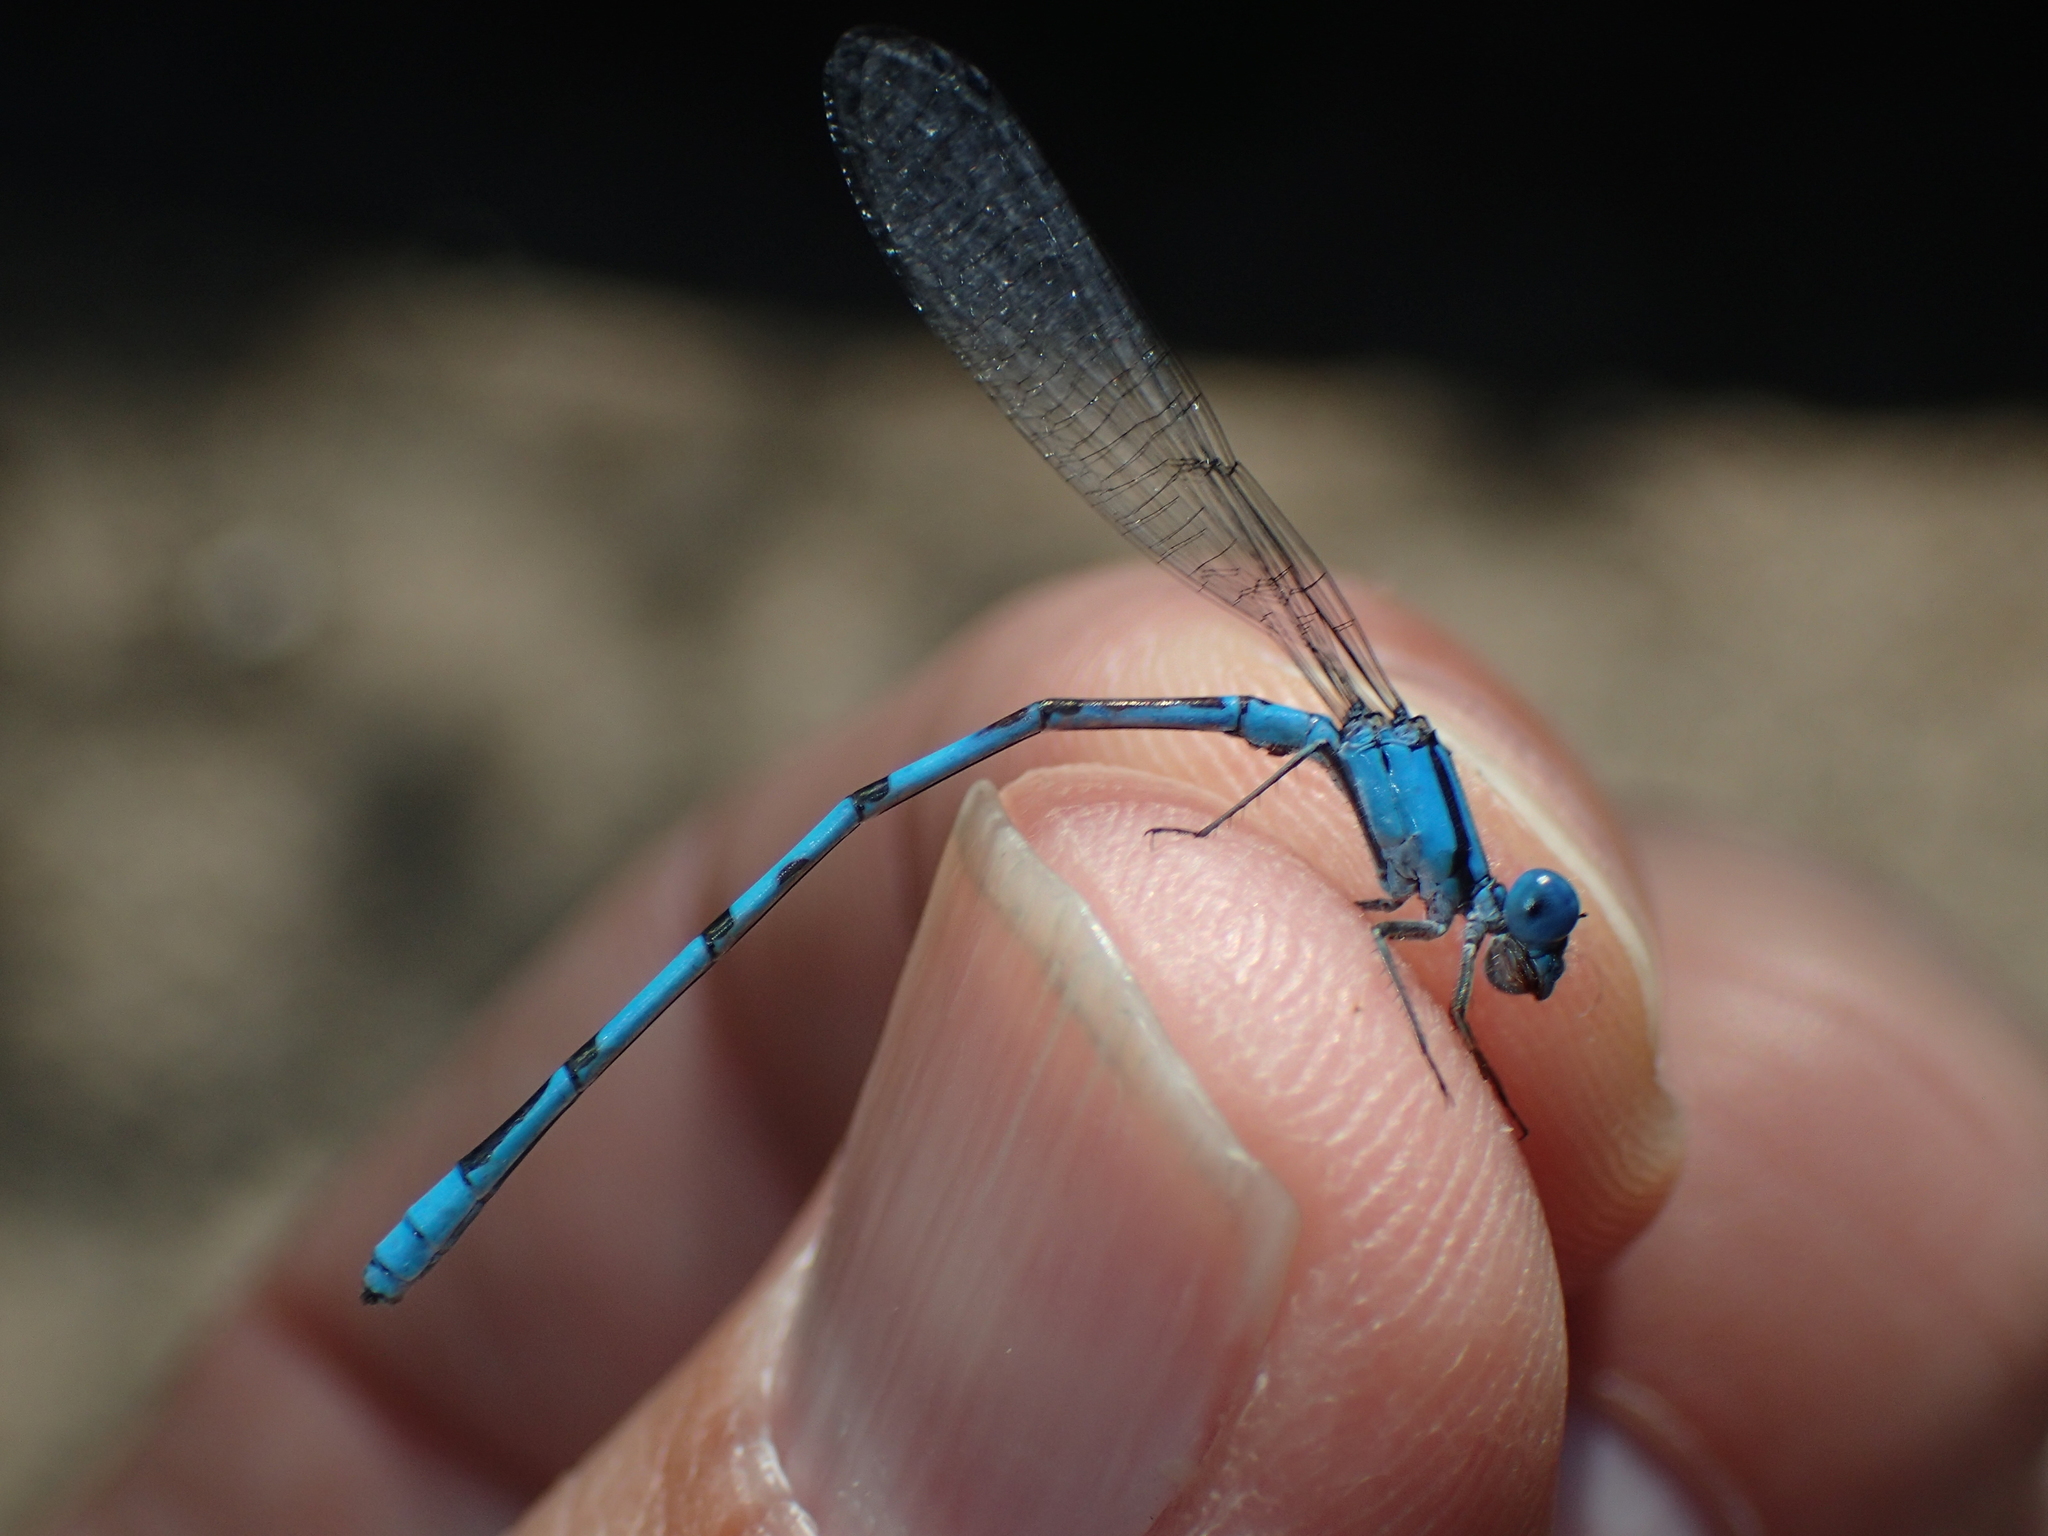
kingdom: Animalia
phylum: Arthropoda
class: Insecta
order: Odonata
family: Coenagrionidae
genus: Enallagma
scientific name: Enallagma doubledayi
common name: Atlantic bluet
